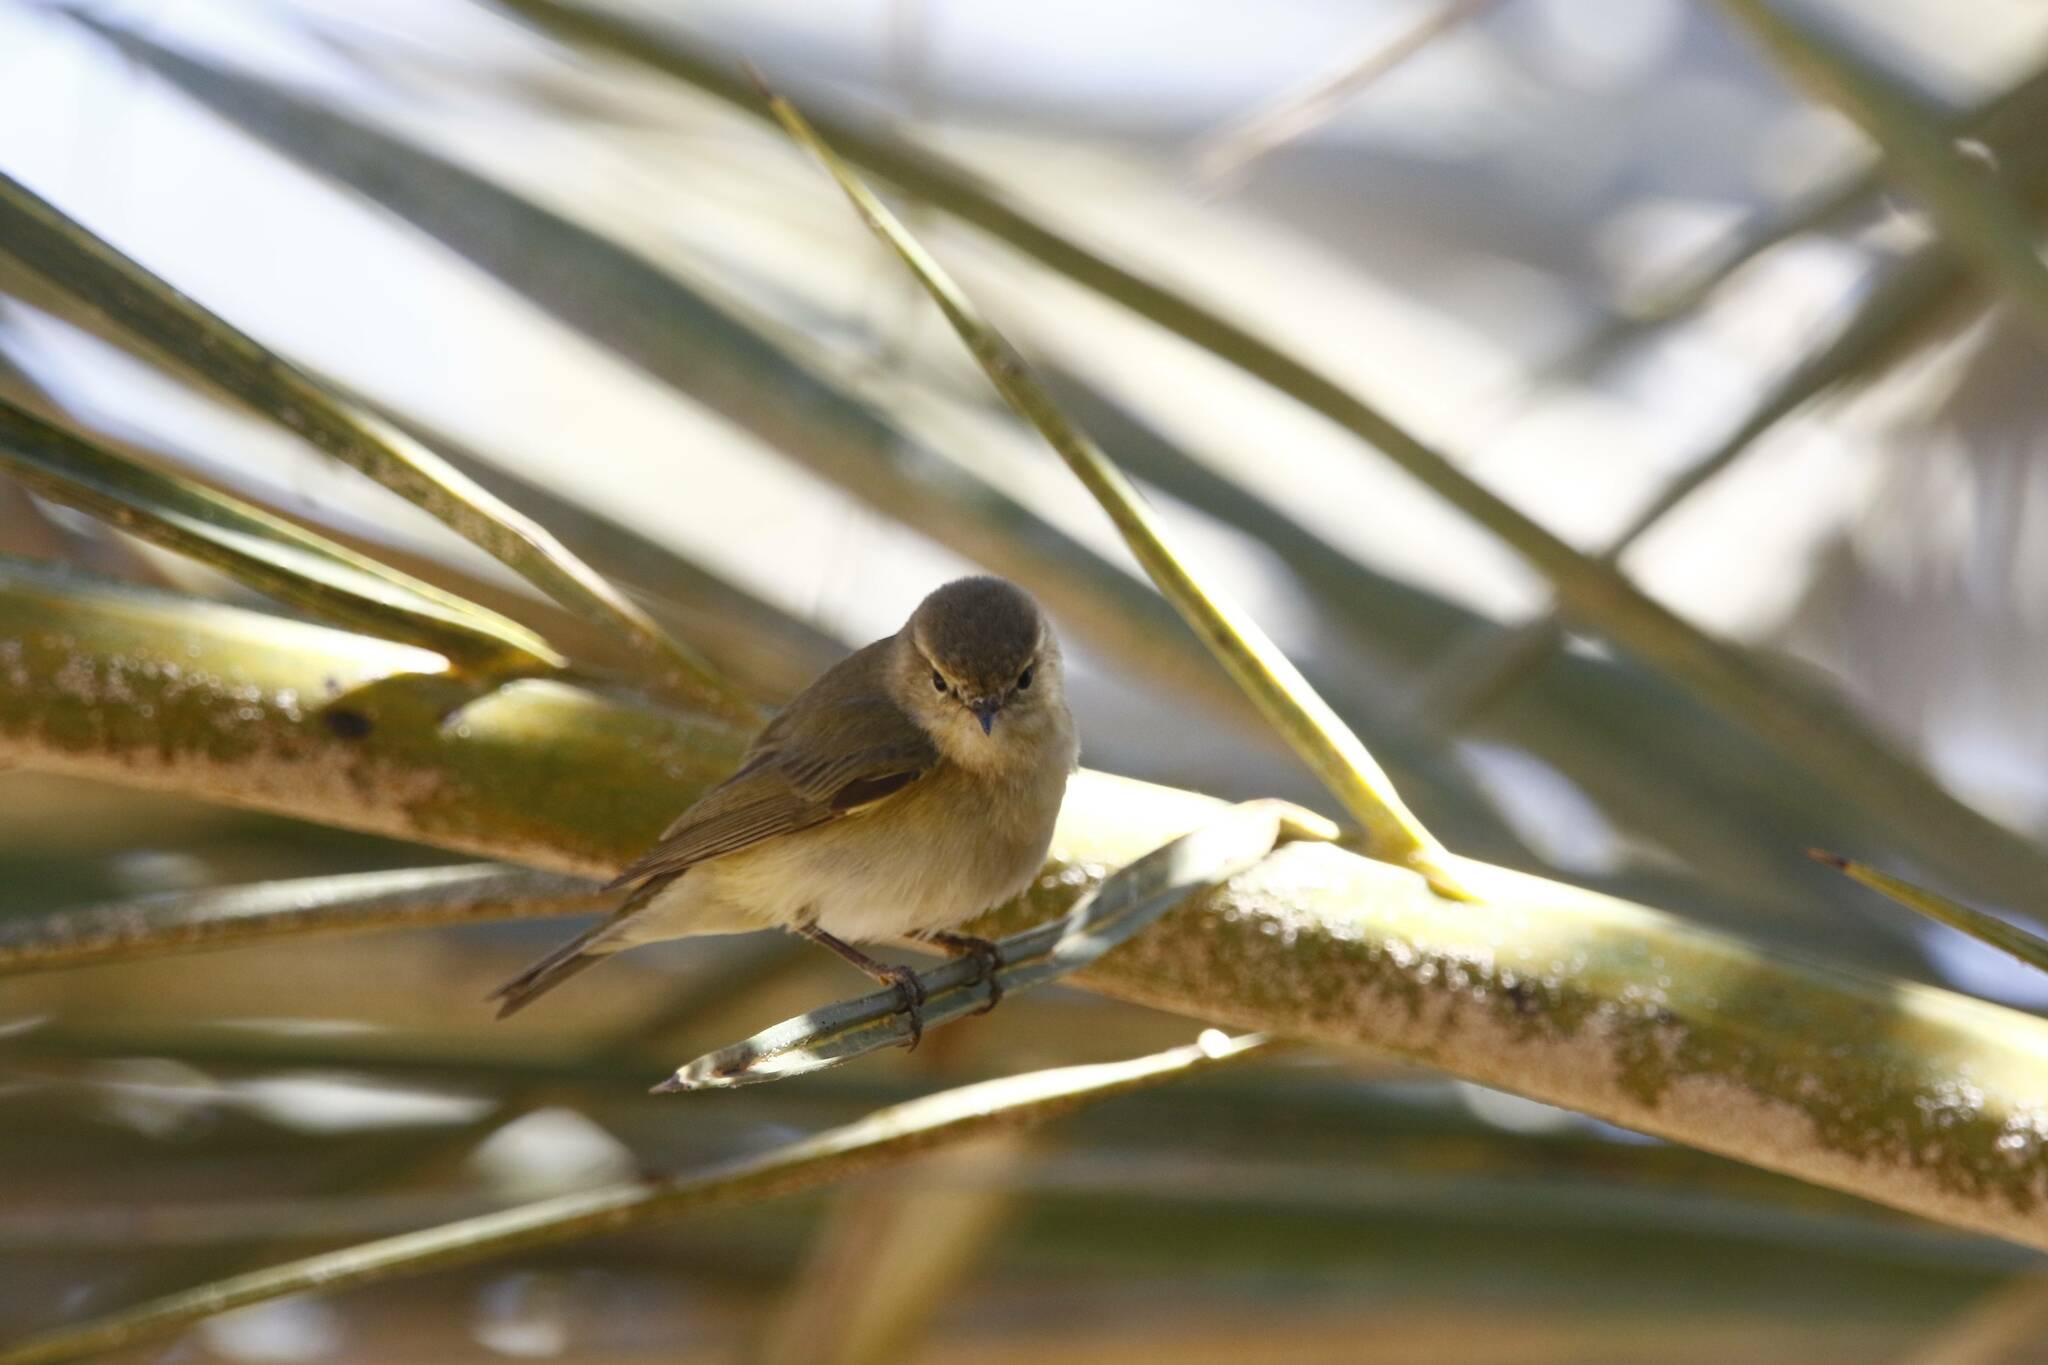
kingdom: Animalia
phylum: Chordata
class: Aves
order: Passeriformes
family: Phylloscopidae
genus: Phylloscopus
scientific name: Phylloscopus collybita
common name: Common chiffchaff
